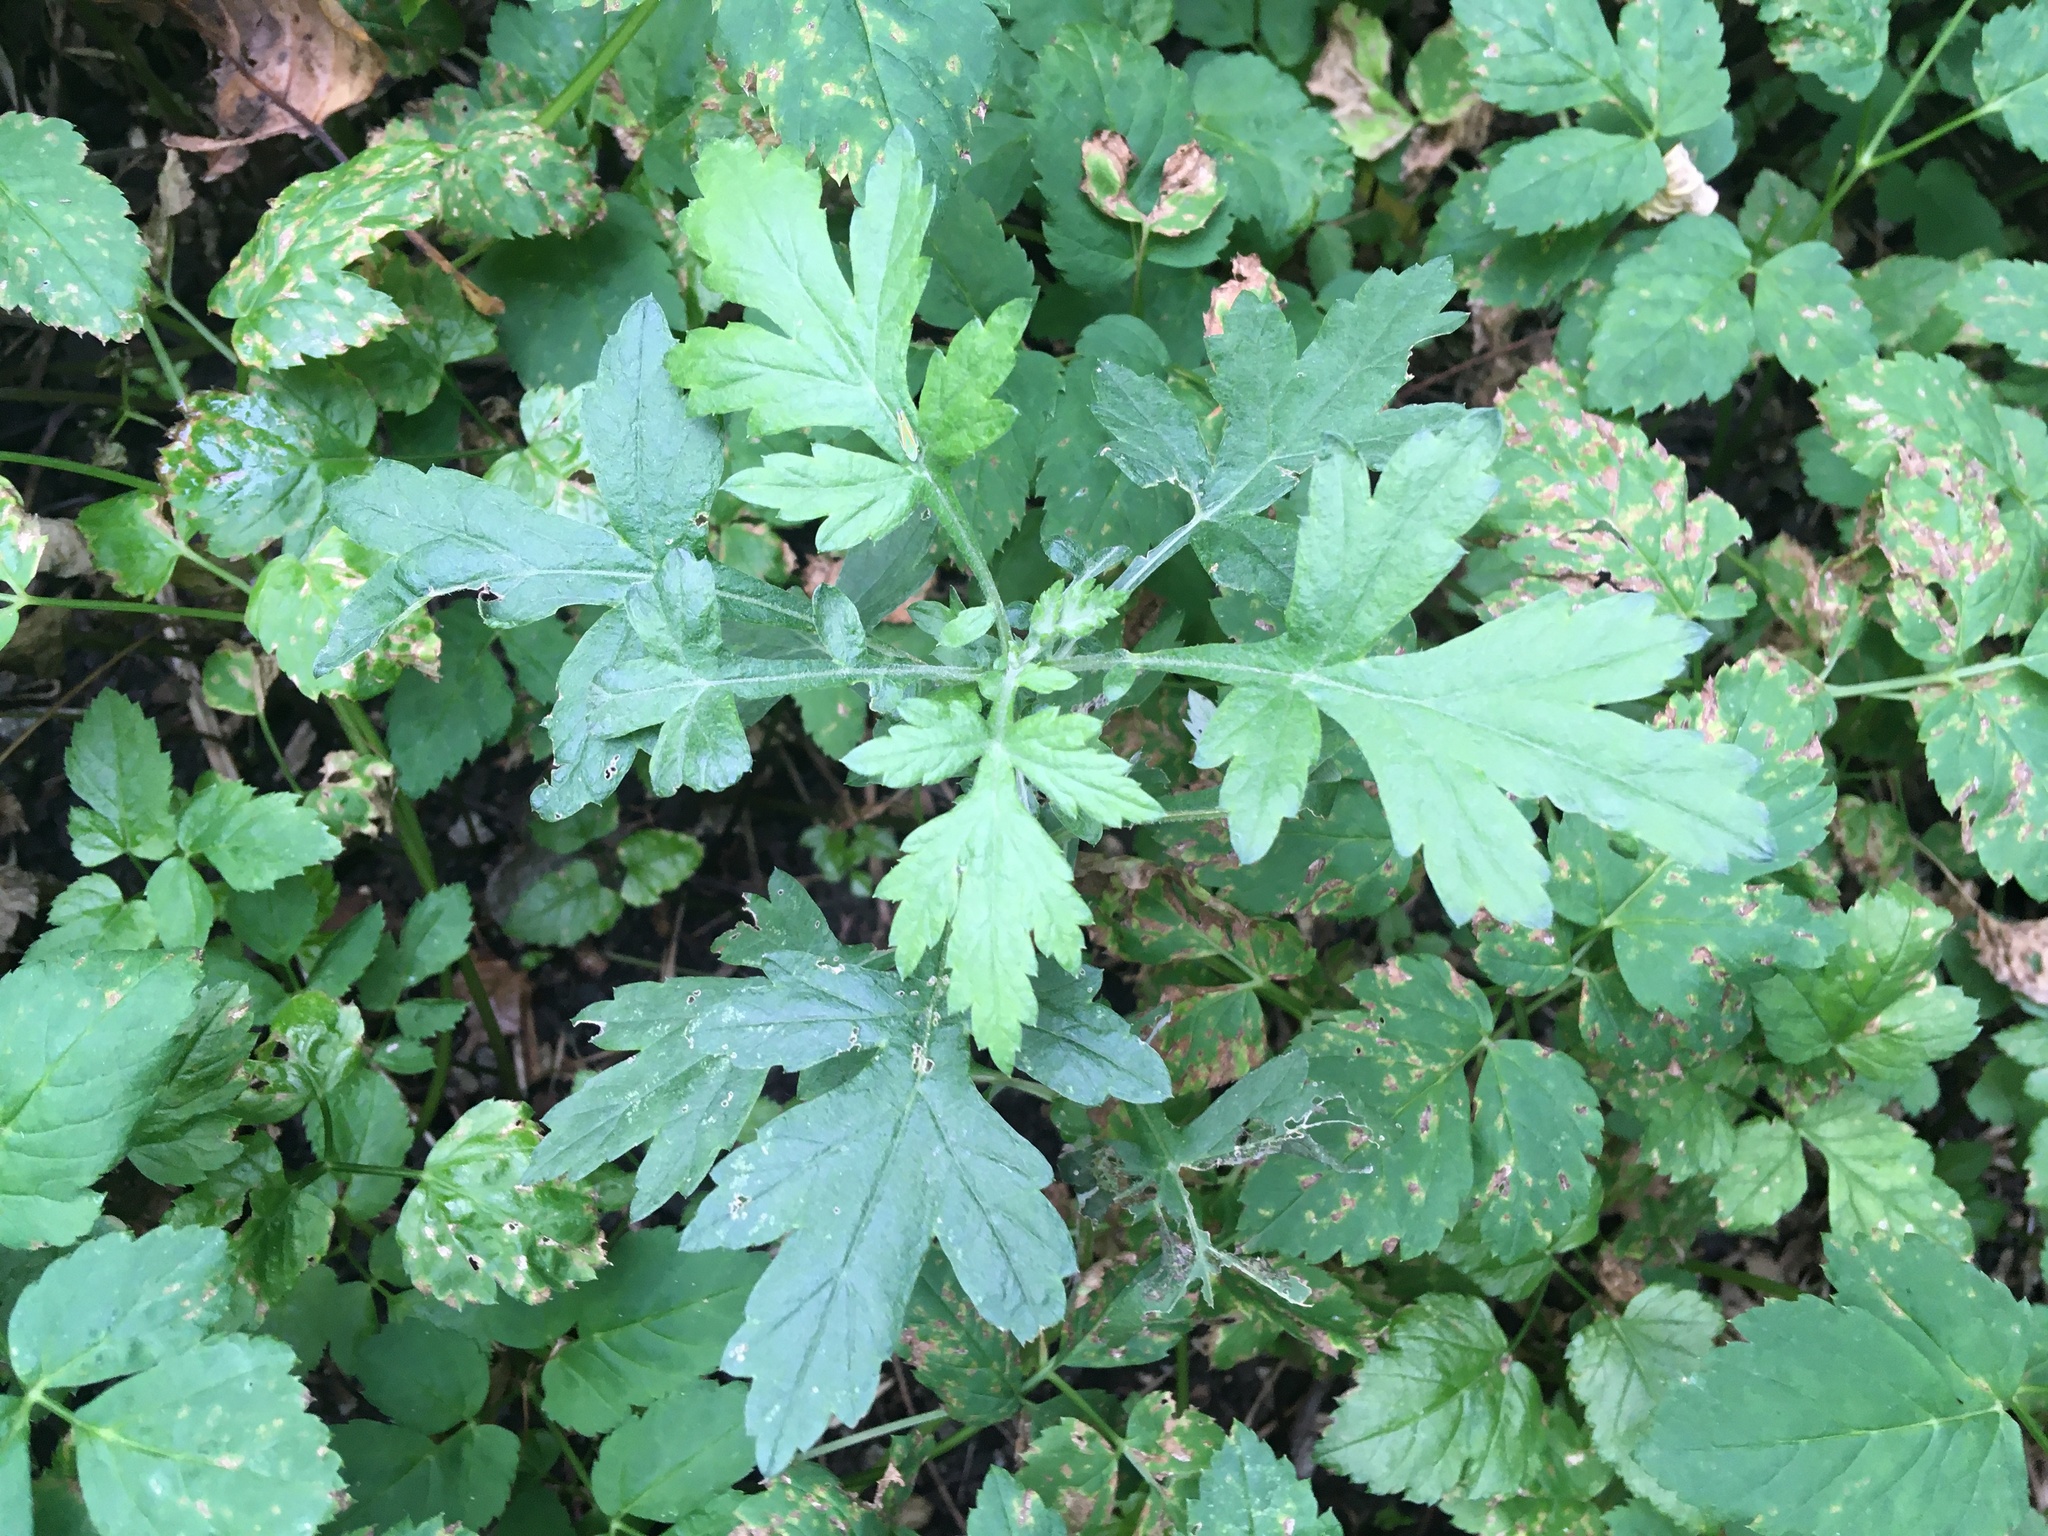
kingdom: Plantae
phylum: Tracheophyta
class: Magnoliopsida
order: Asterales
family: Asteraceae
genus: Artemisia
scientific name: Artemisia vulgaris
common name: Mugwort
